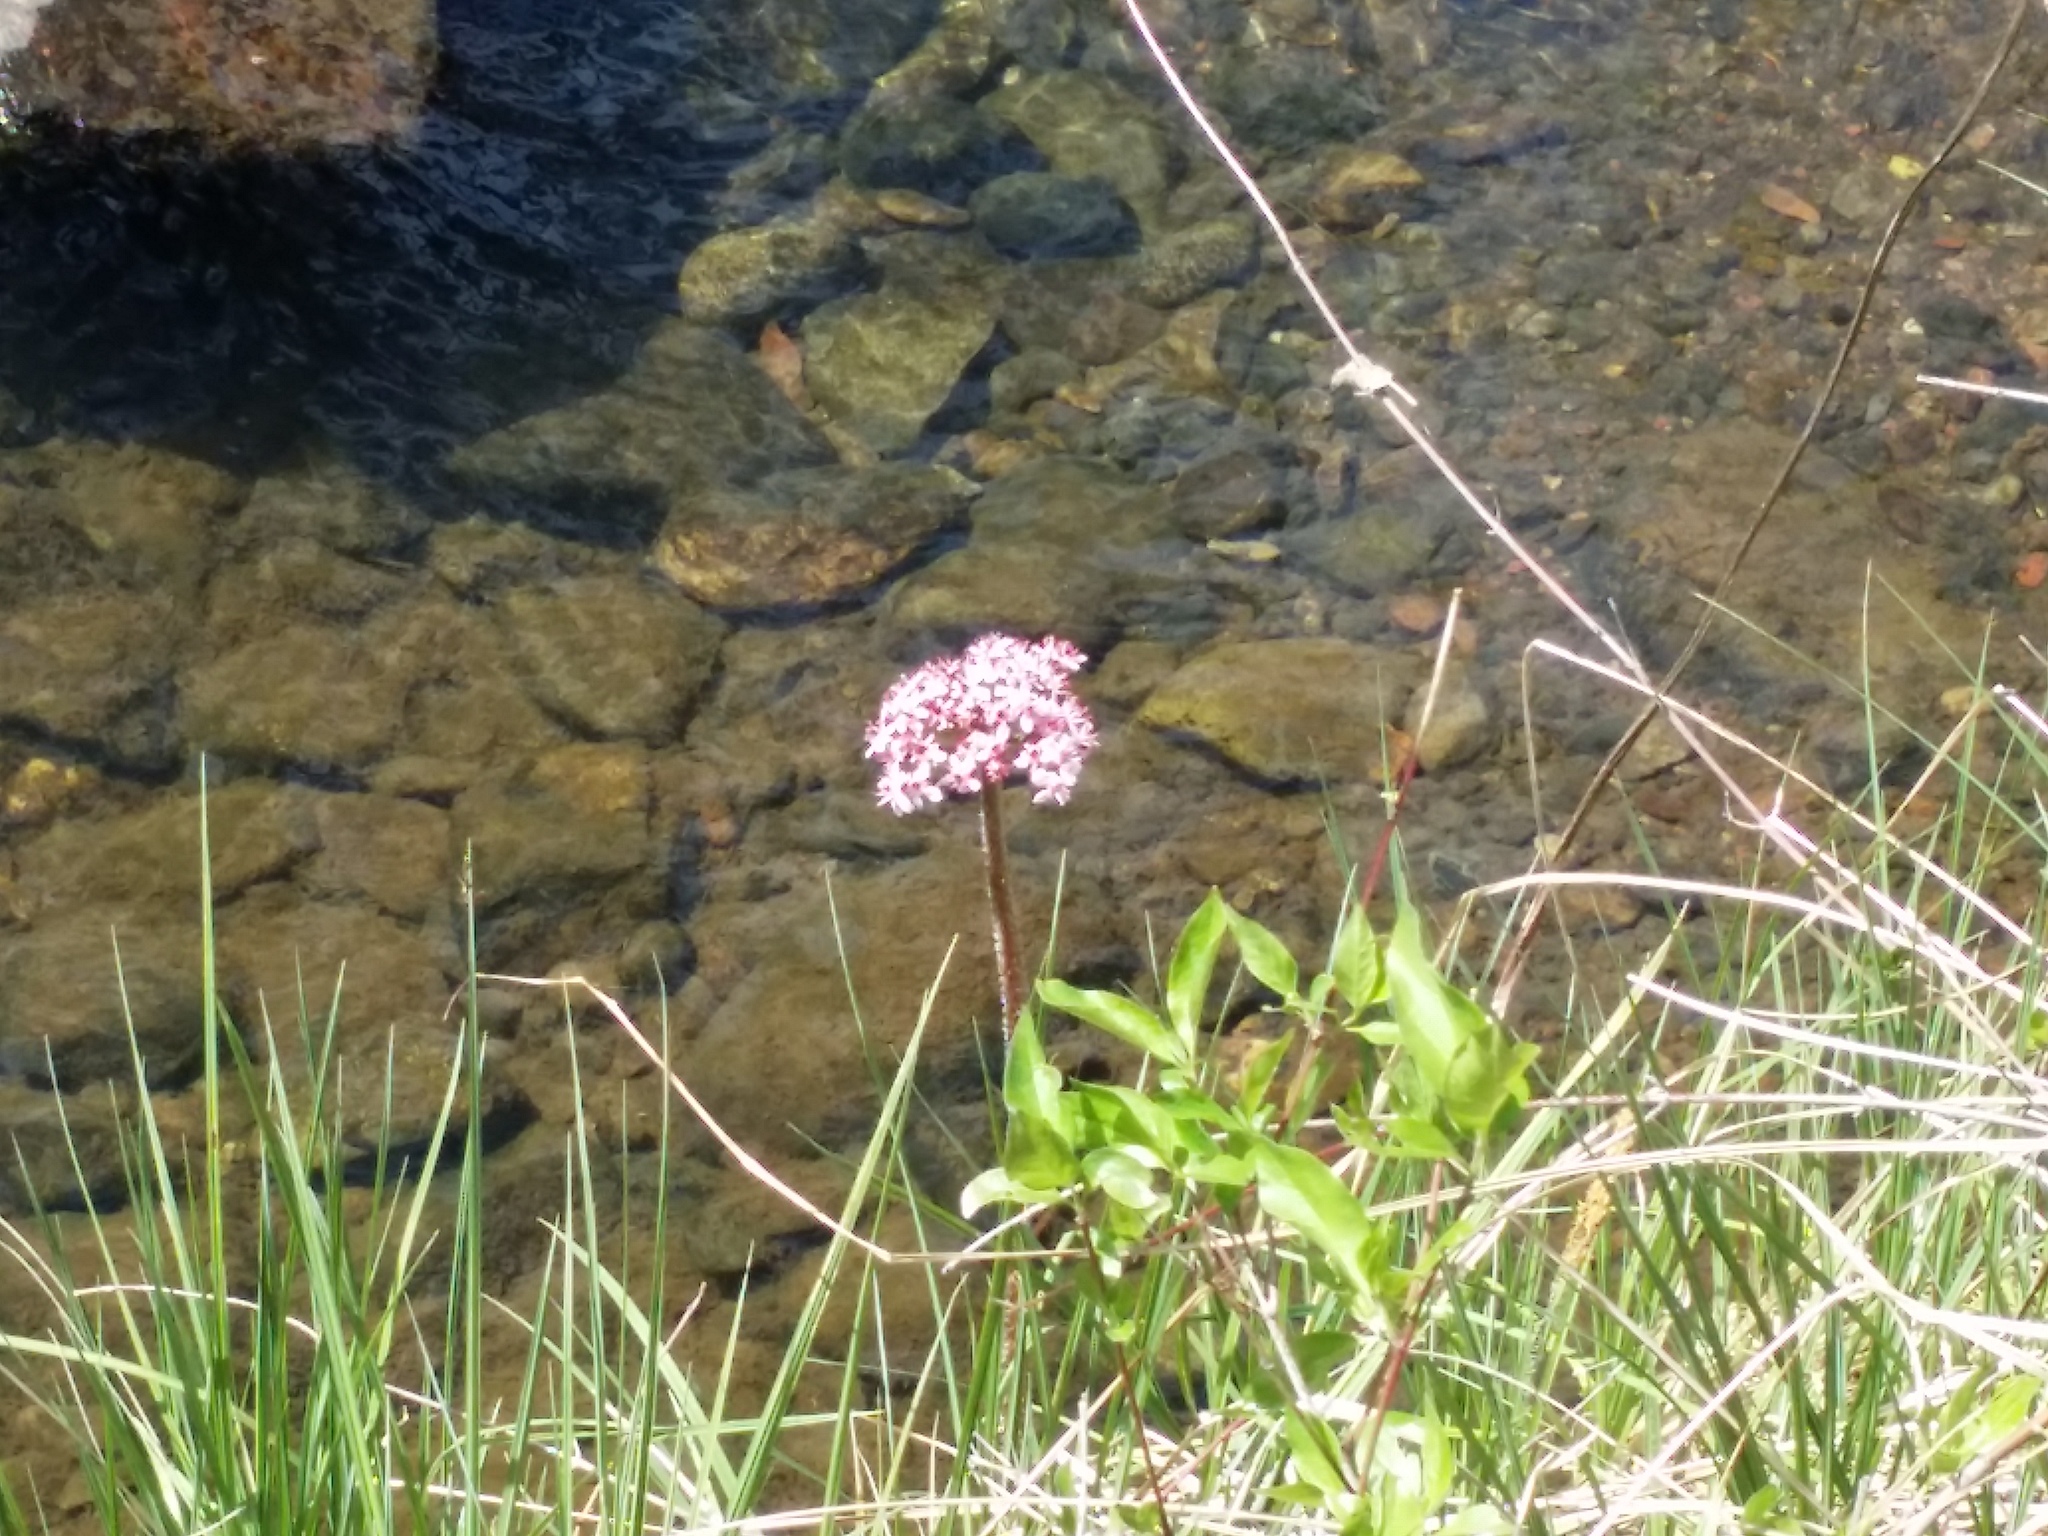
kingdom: Plantae
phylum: Tracheophyta
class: Magnoliopsida
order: Saxifragales
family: Saxifragaceae
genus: Darmera
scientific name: Darmera peltata
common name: Indian-rhubarb
